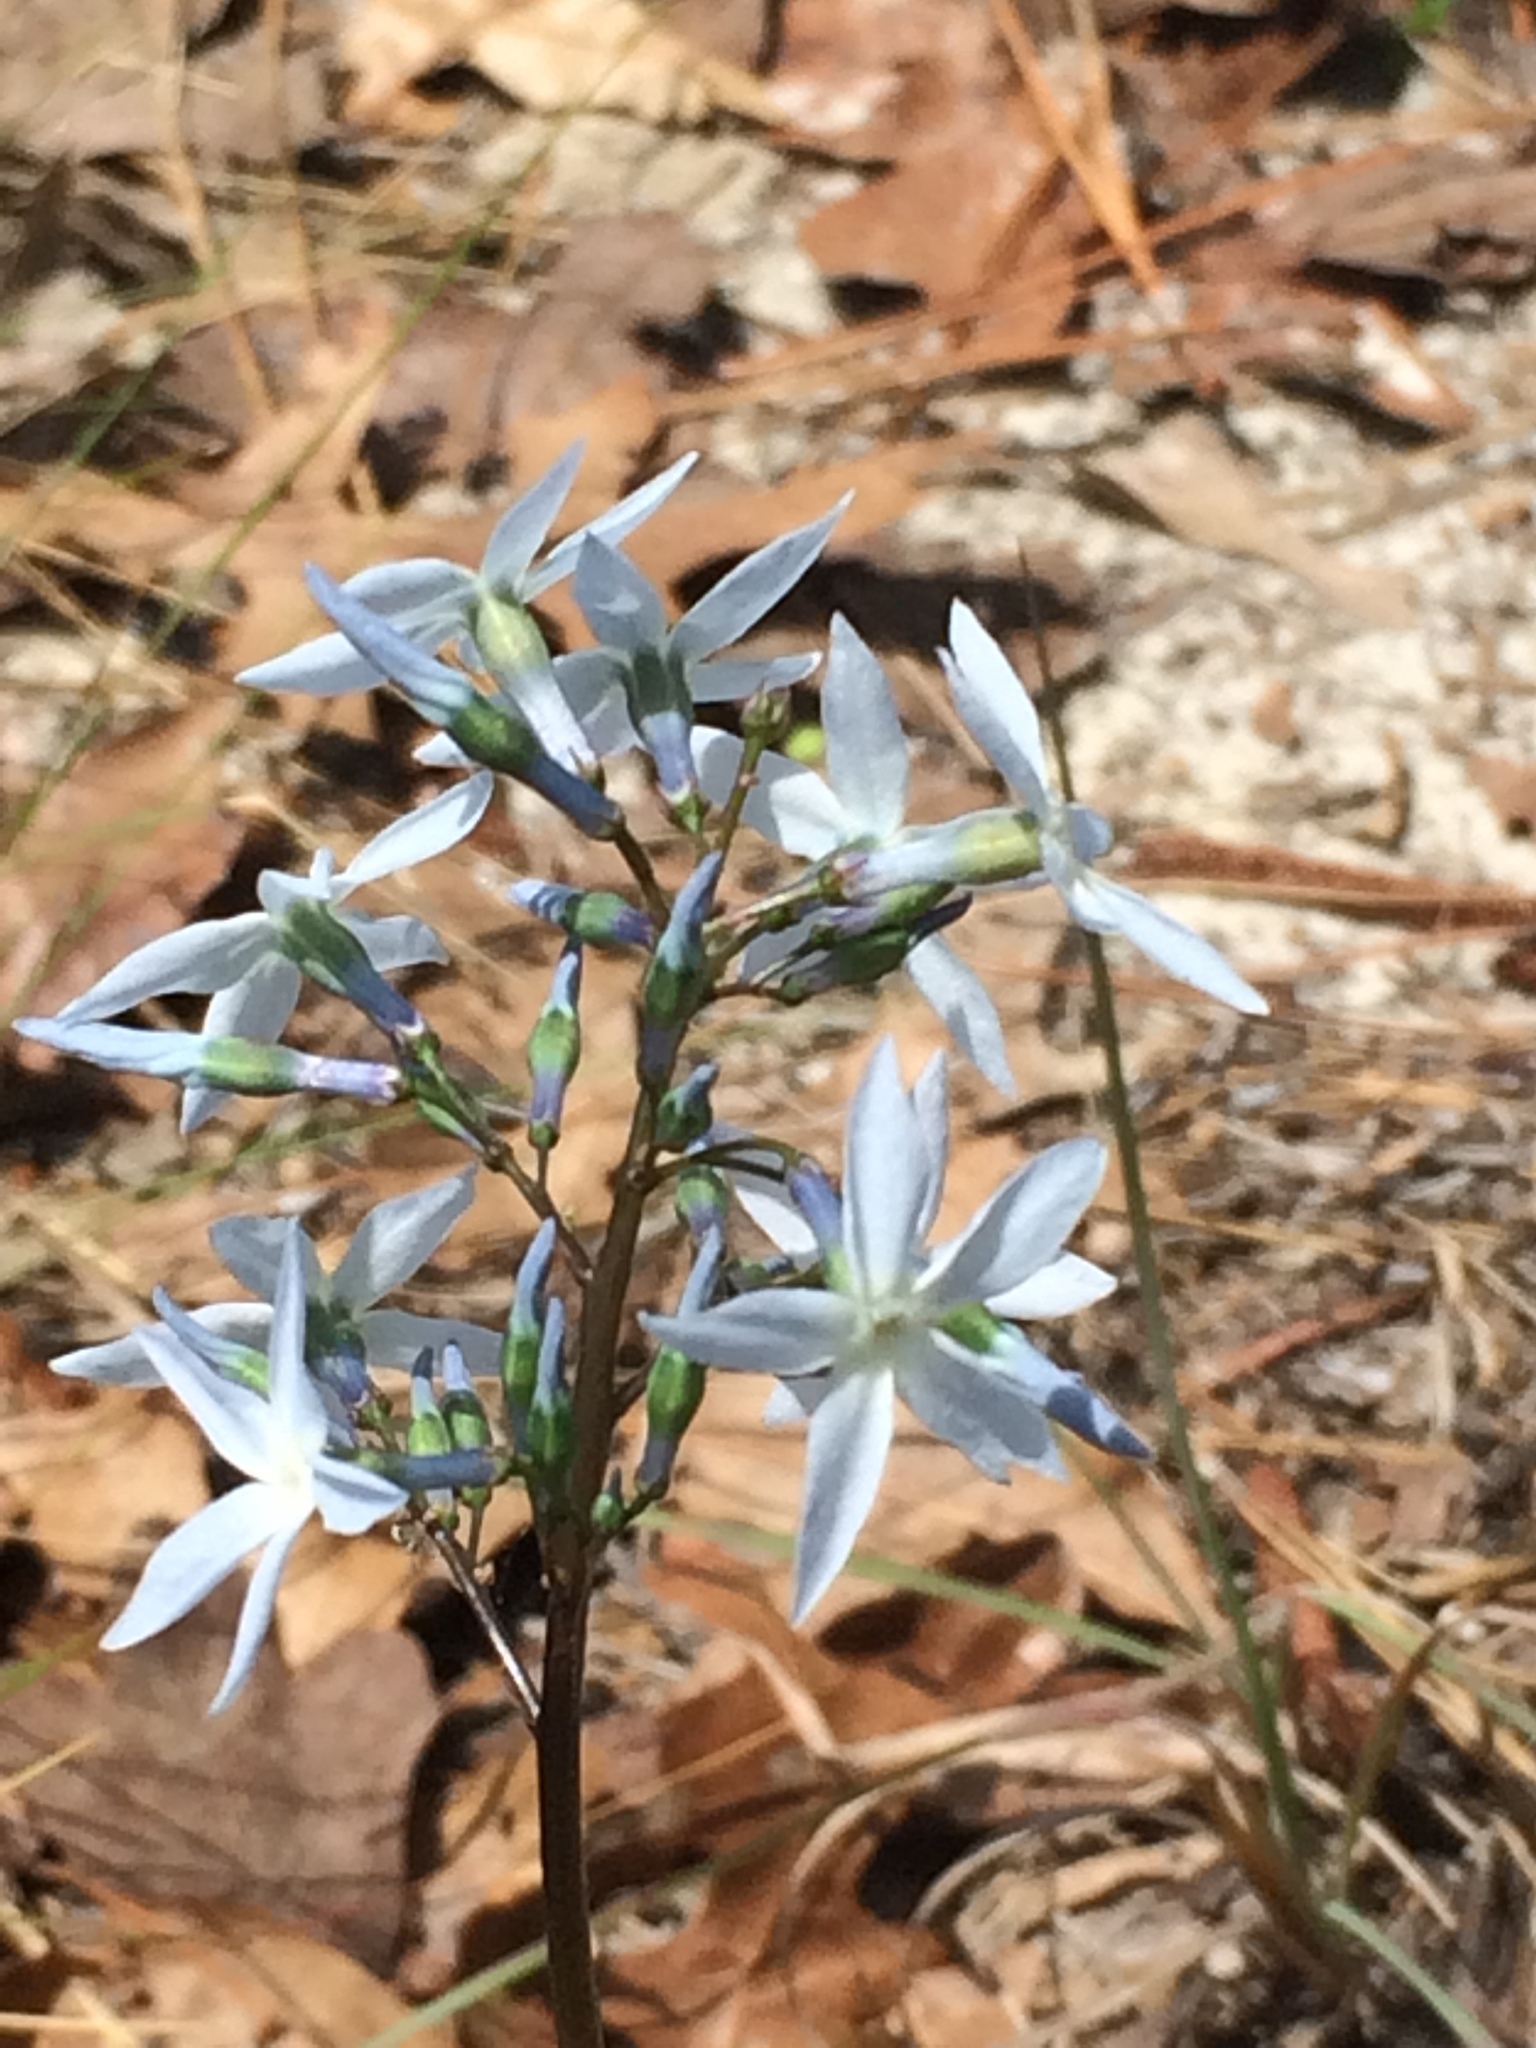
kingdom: Plantae
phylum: Tracheophyta
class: Magnoliopsida
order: Gentianales
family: Apocynaceae
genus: Amsonia
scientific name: Amsonia ciliata
